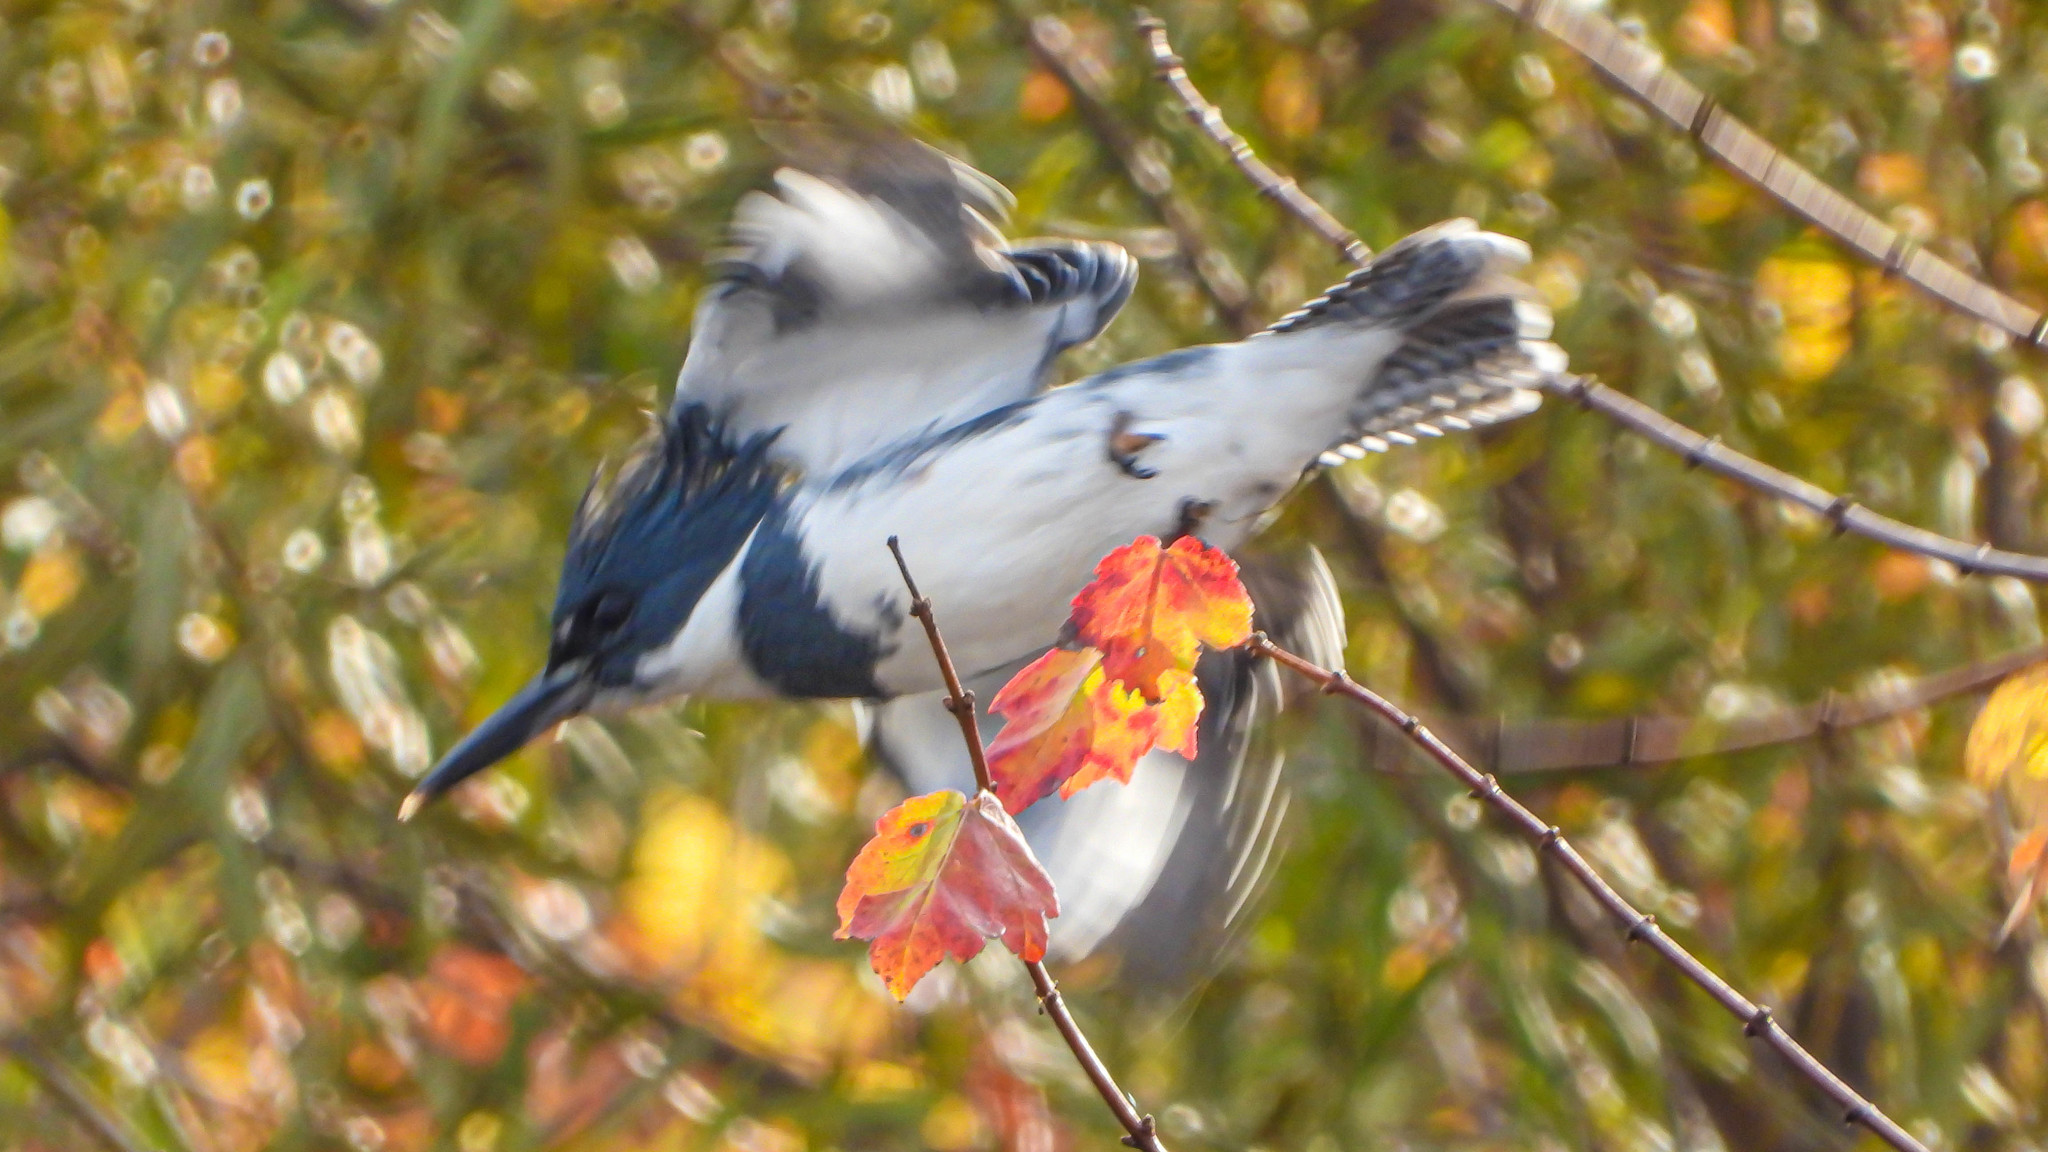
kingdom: Animalia
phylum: Chordata
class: Aves
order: Coraciiformes
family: Alcedinidae
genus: Megaceryle
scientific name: Megaceryle alcyon
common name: Belted kingfisher
